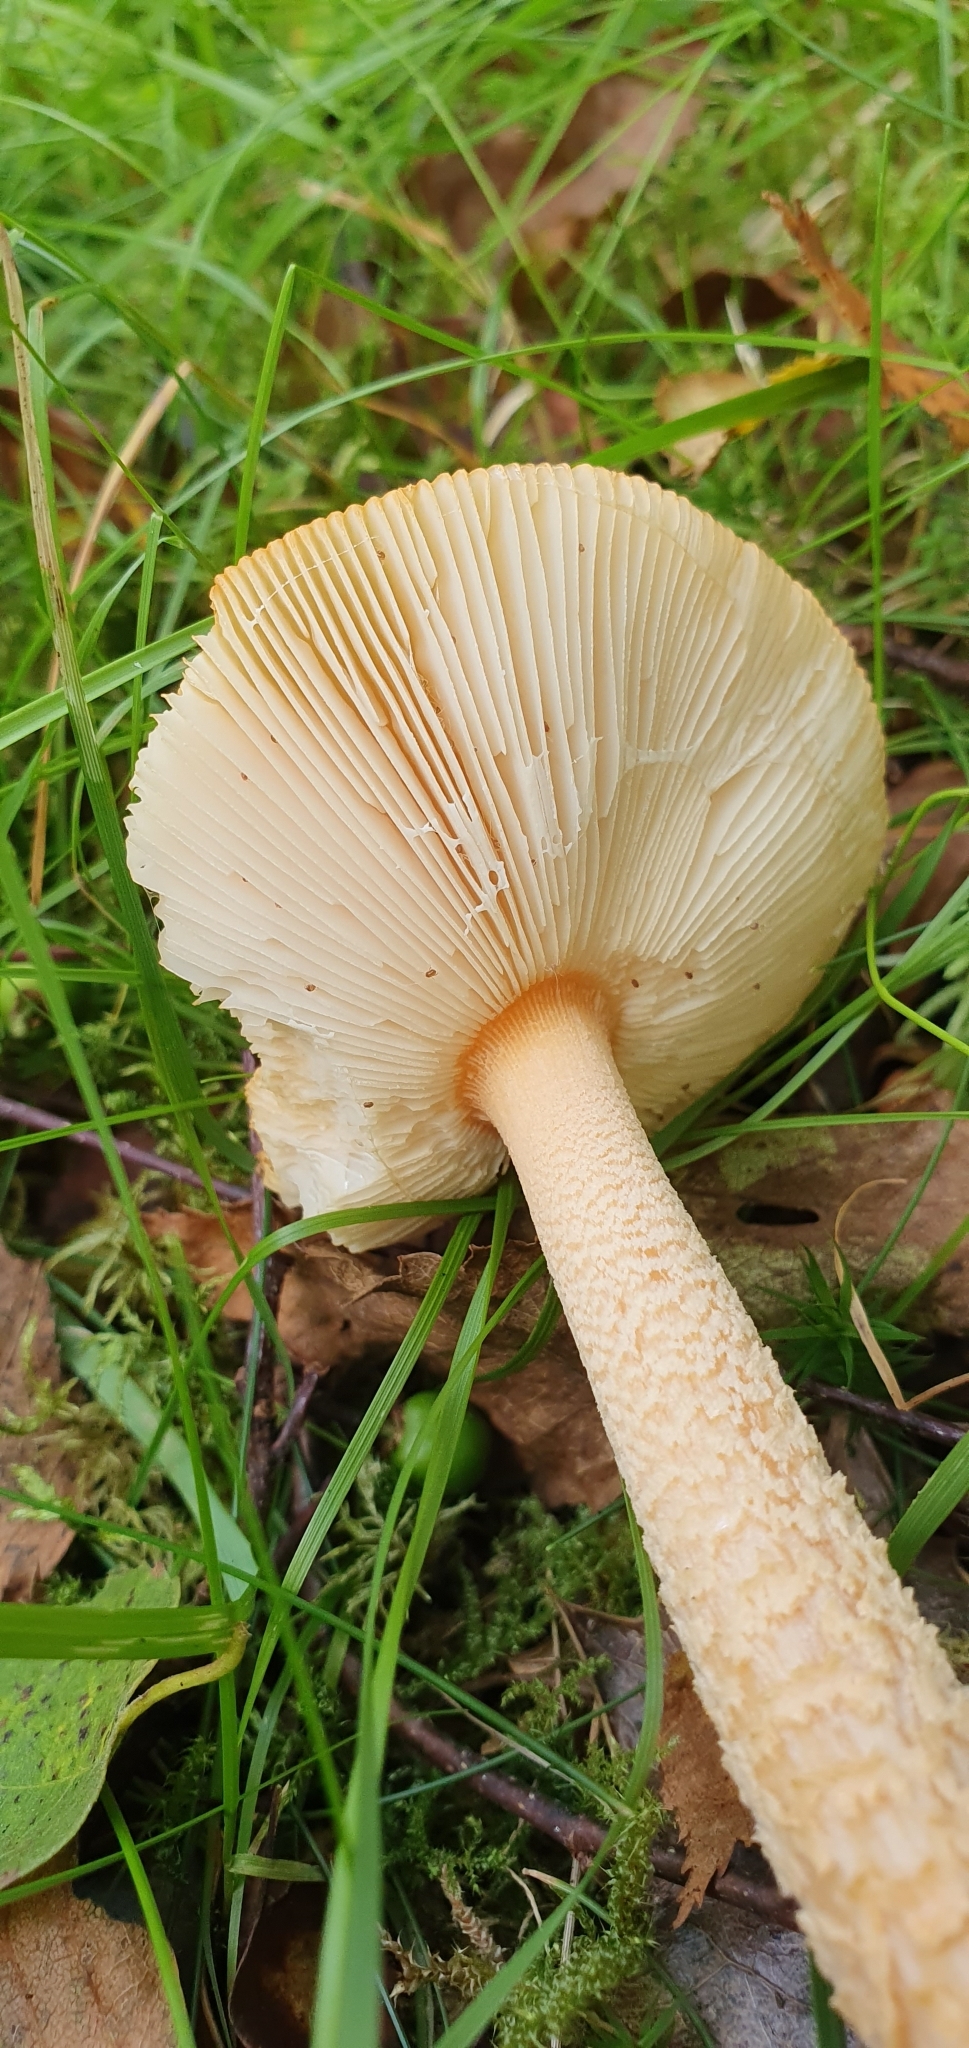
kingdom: Fungi
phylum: Basidiomycota
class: Agaricomycetes
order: Agaricales
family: Amanitaceae
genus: Amanita
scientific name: Amanita crocea
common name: Orange grisette
